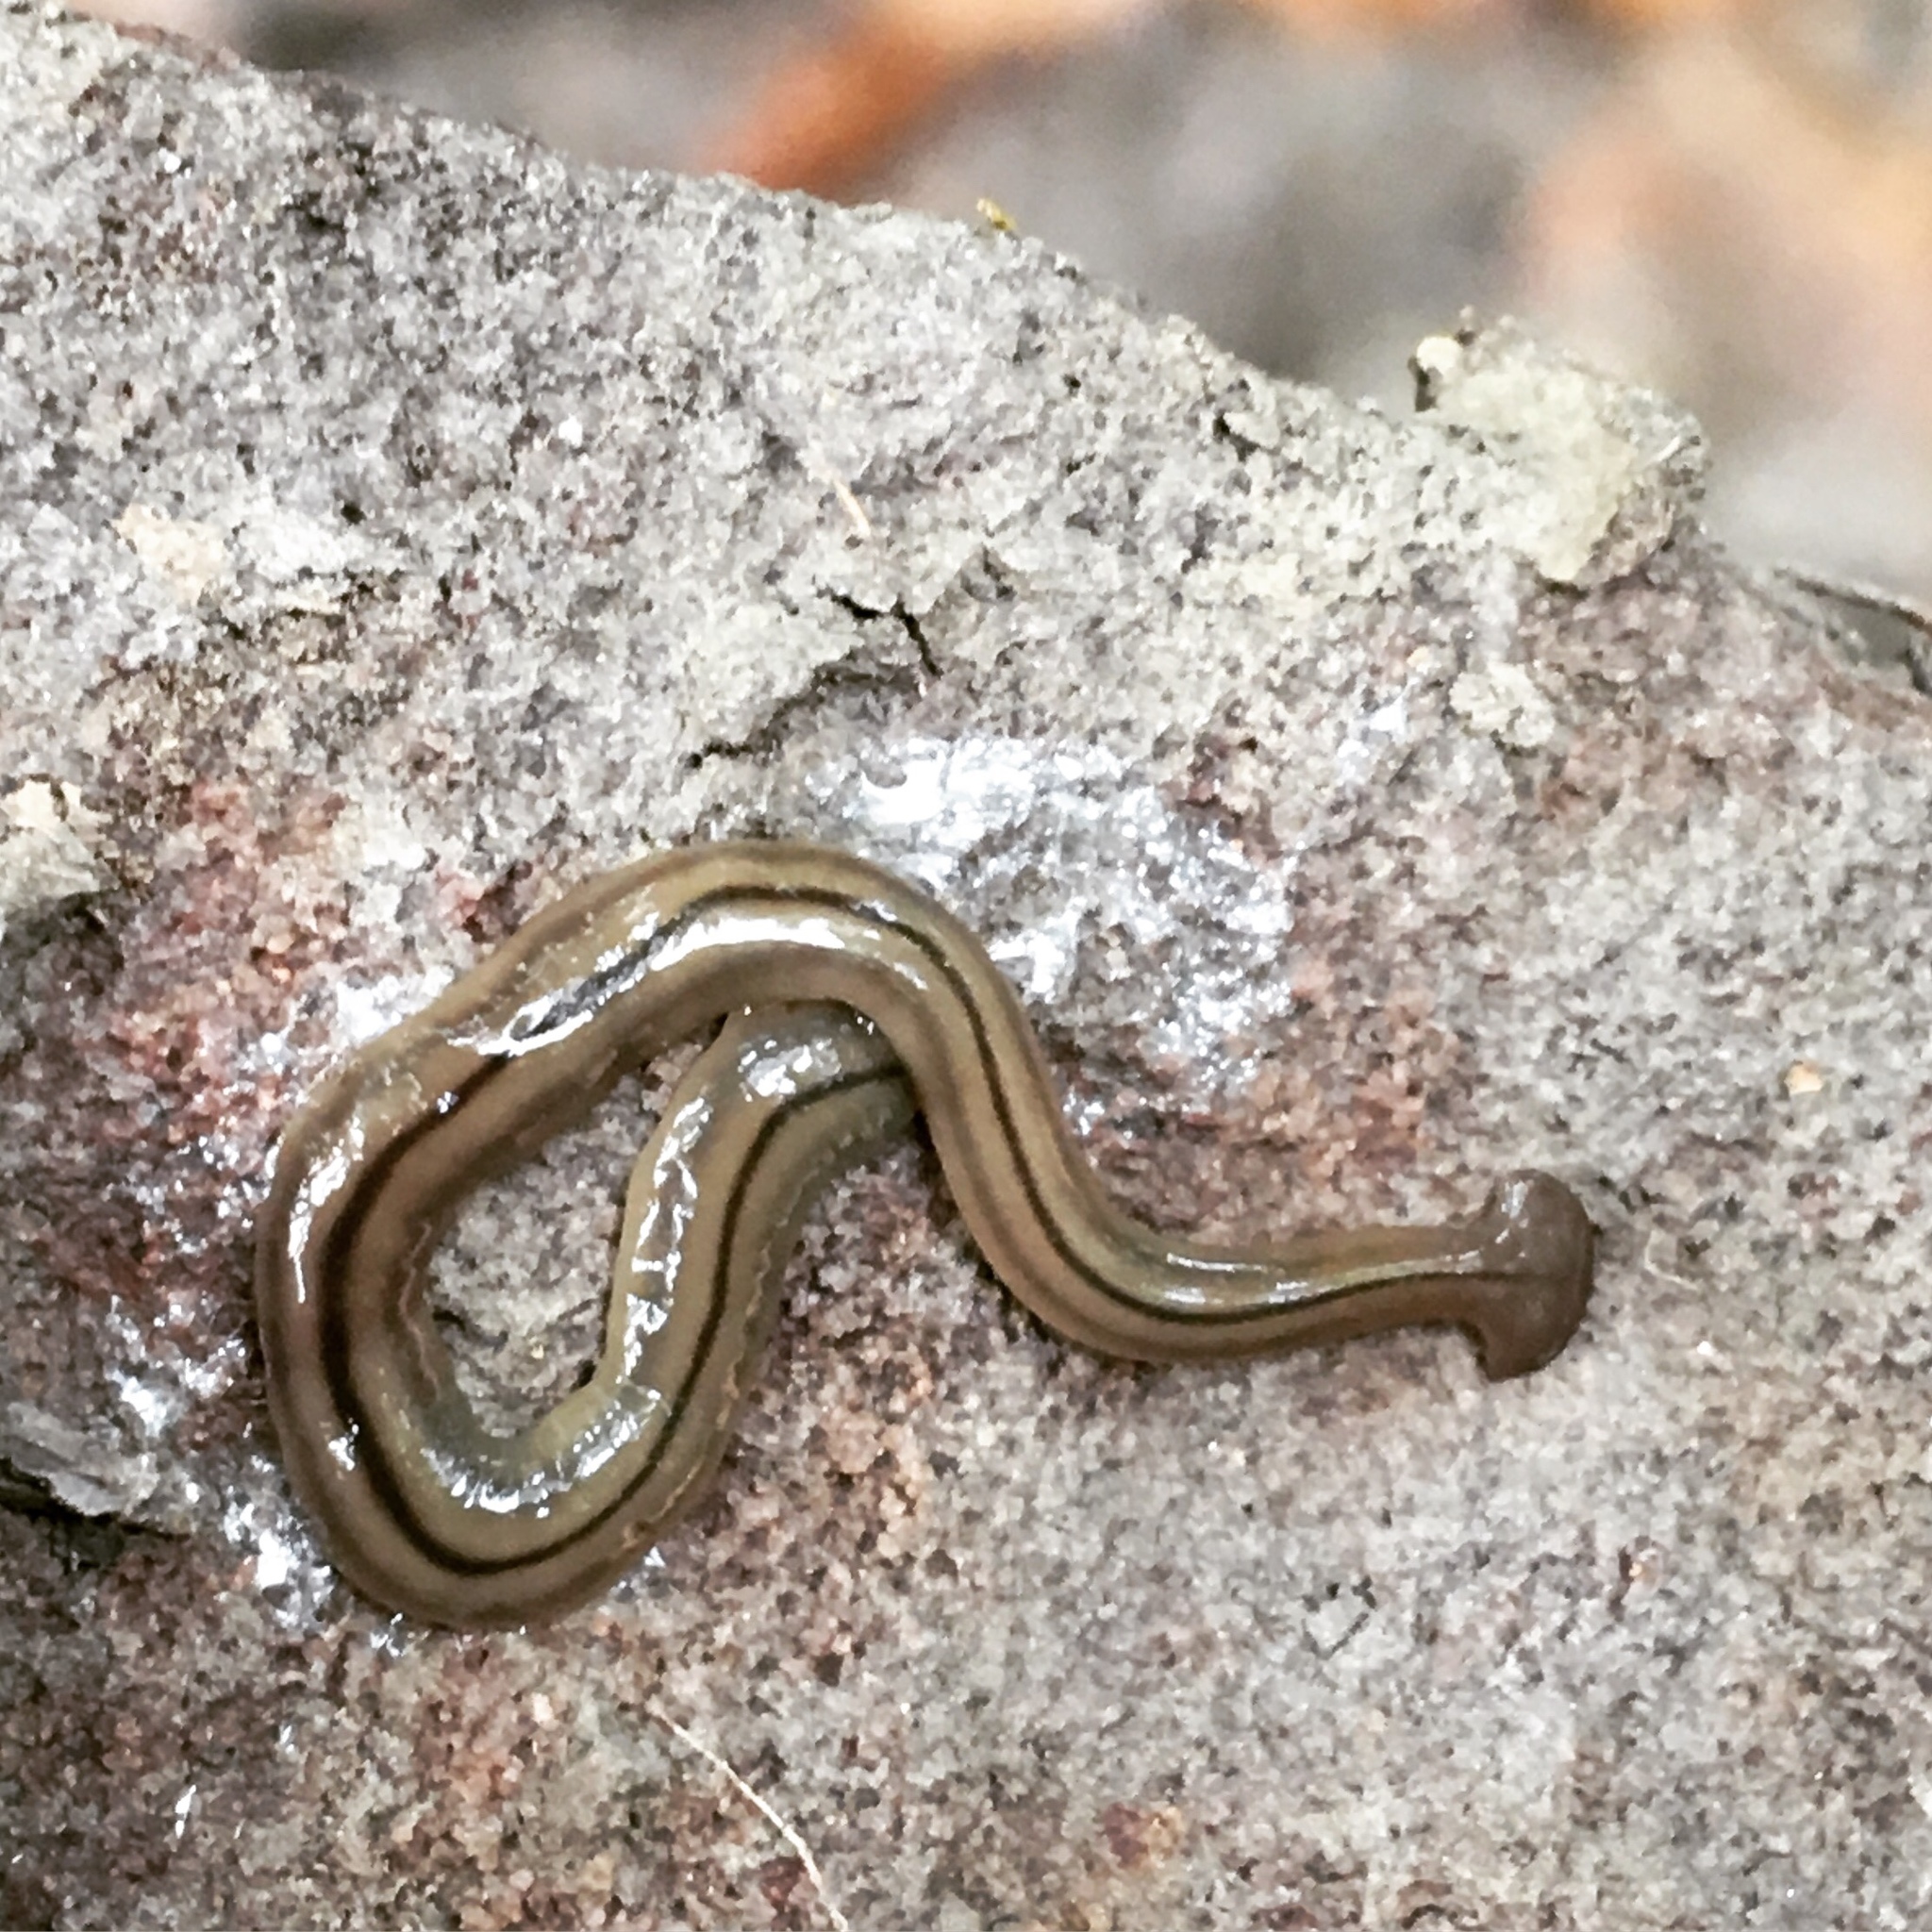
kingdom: Animalia
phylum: Platyhelminthes
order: Tricladida
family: Geoplanidae
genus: Bipalium
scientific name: Bipalium pennsylvanicum
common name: Three-lined land planarian
